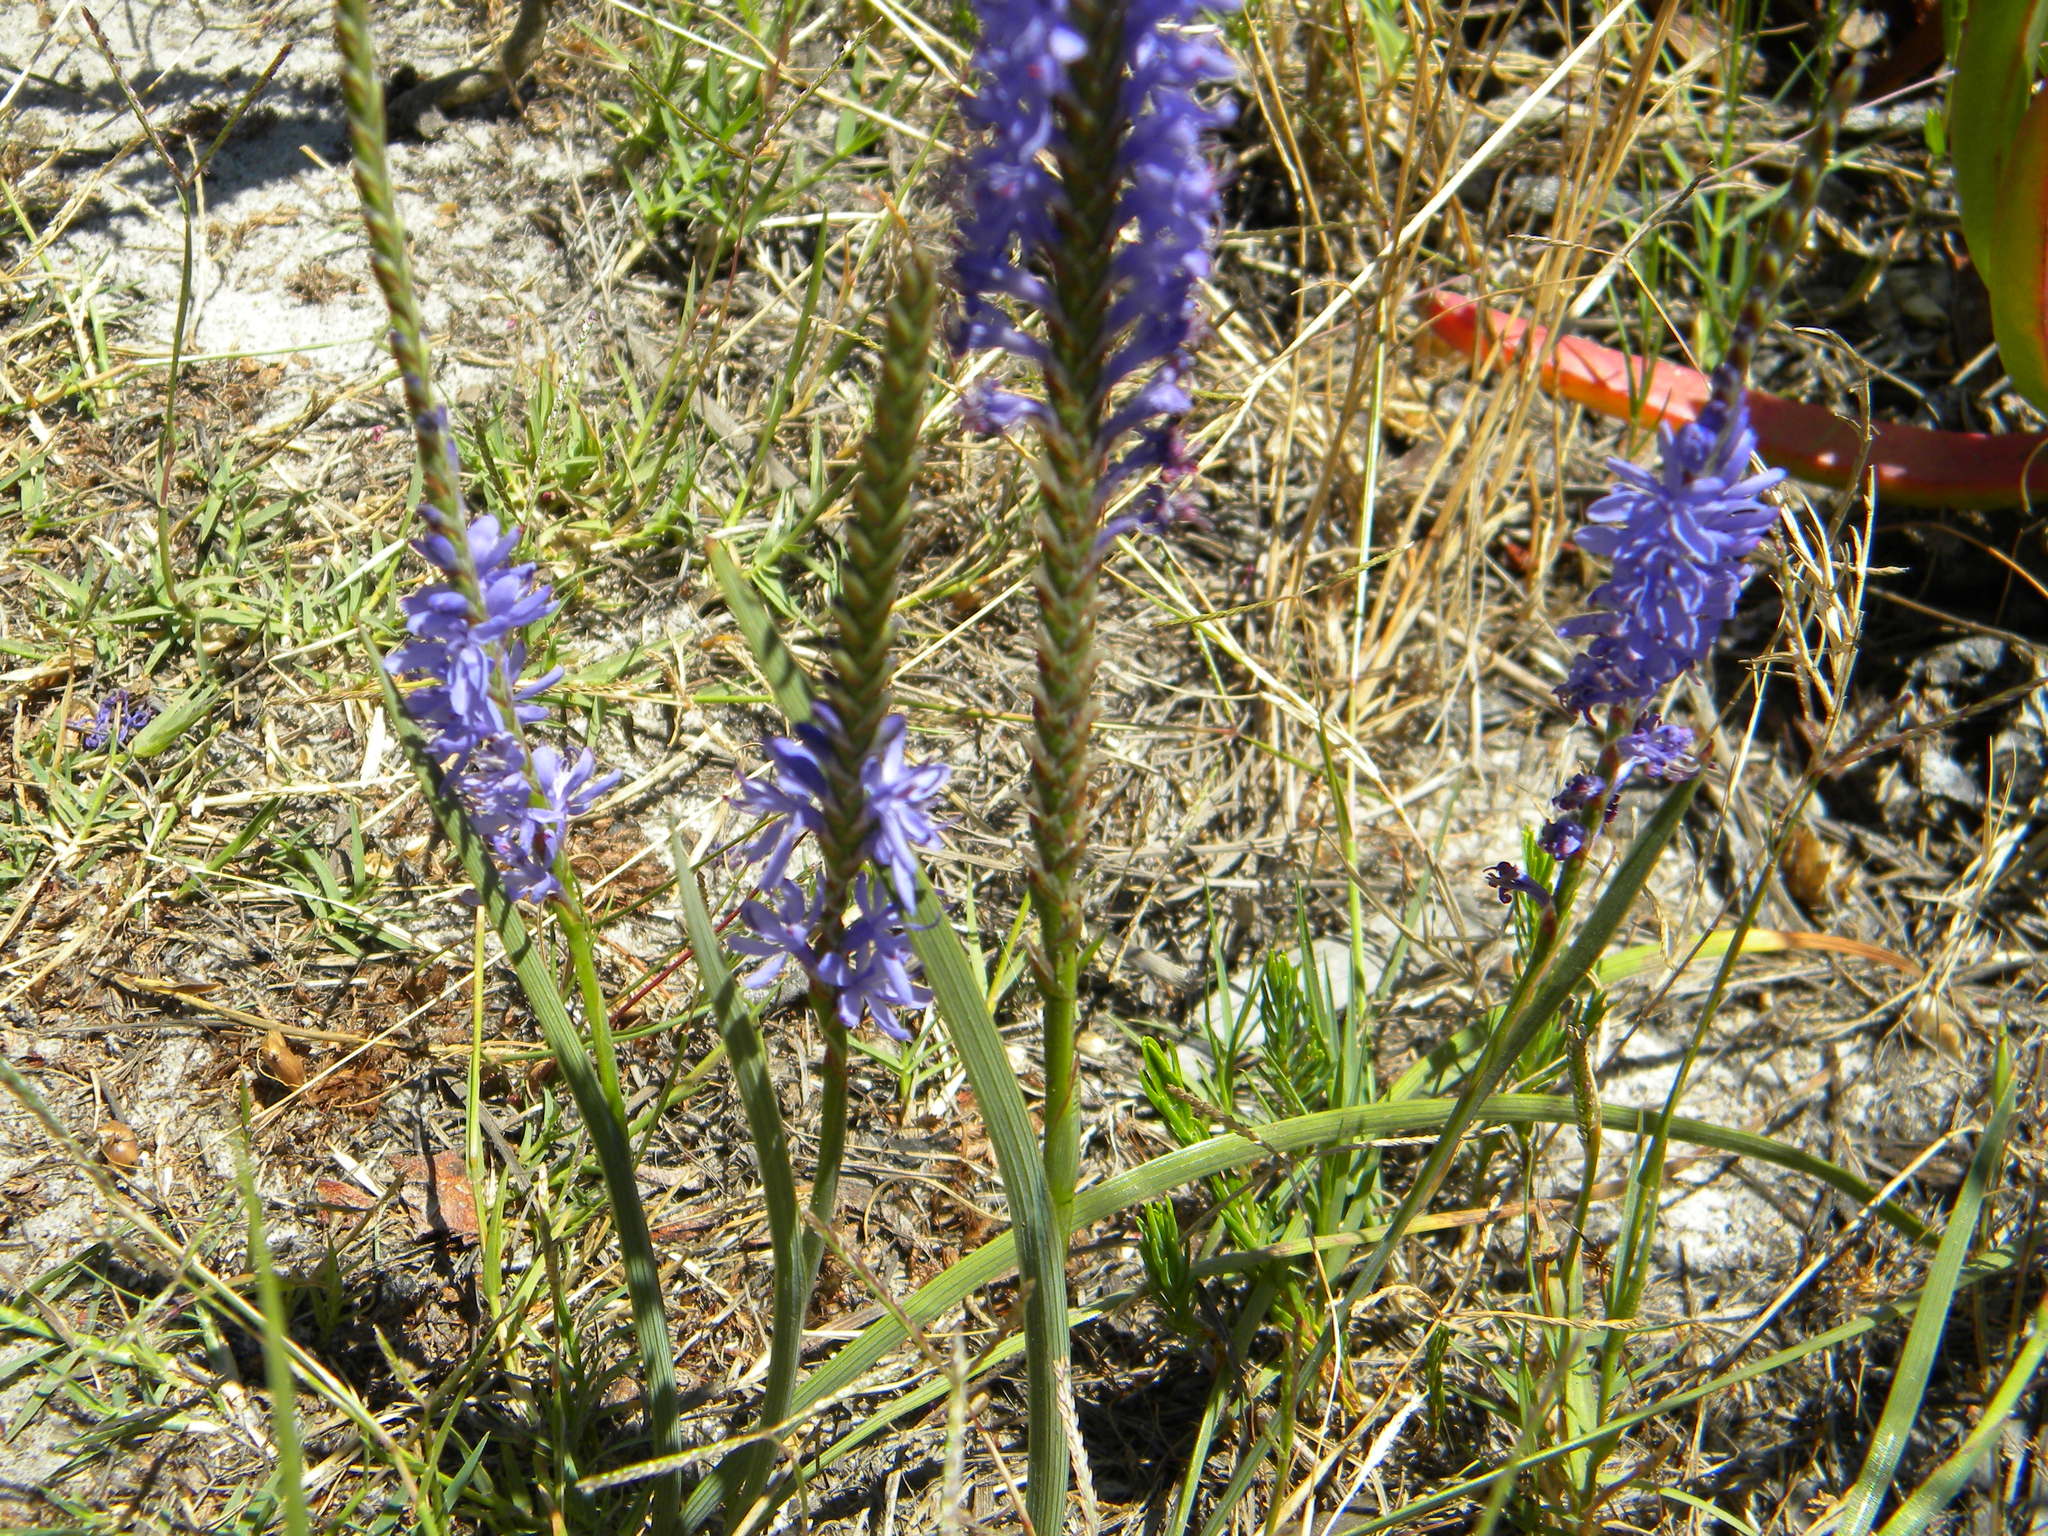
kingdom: Plantae
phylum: Tracheophyta
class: Liliopsida
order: Asparagales
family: Iridaceae
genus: Micranthus
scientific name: Micranthus alopecuroides
